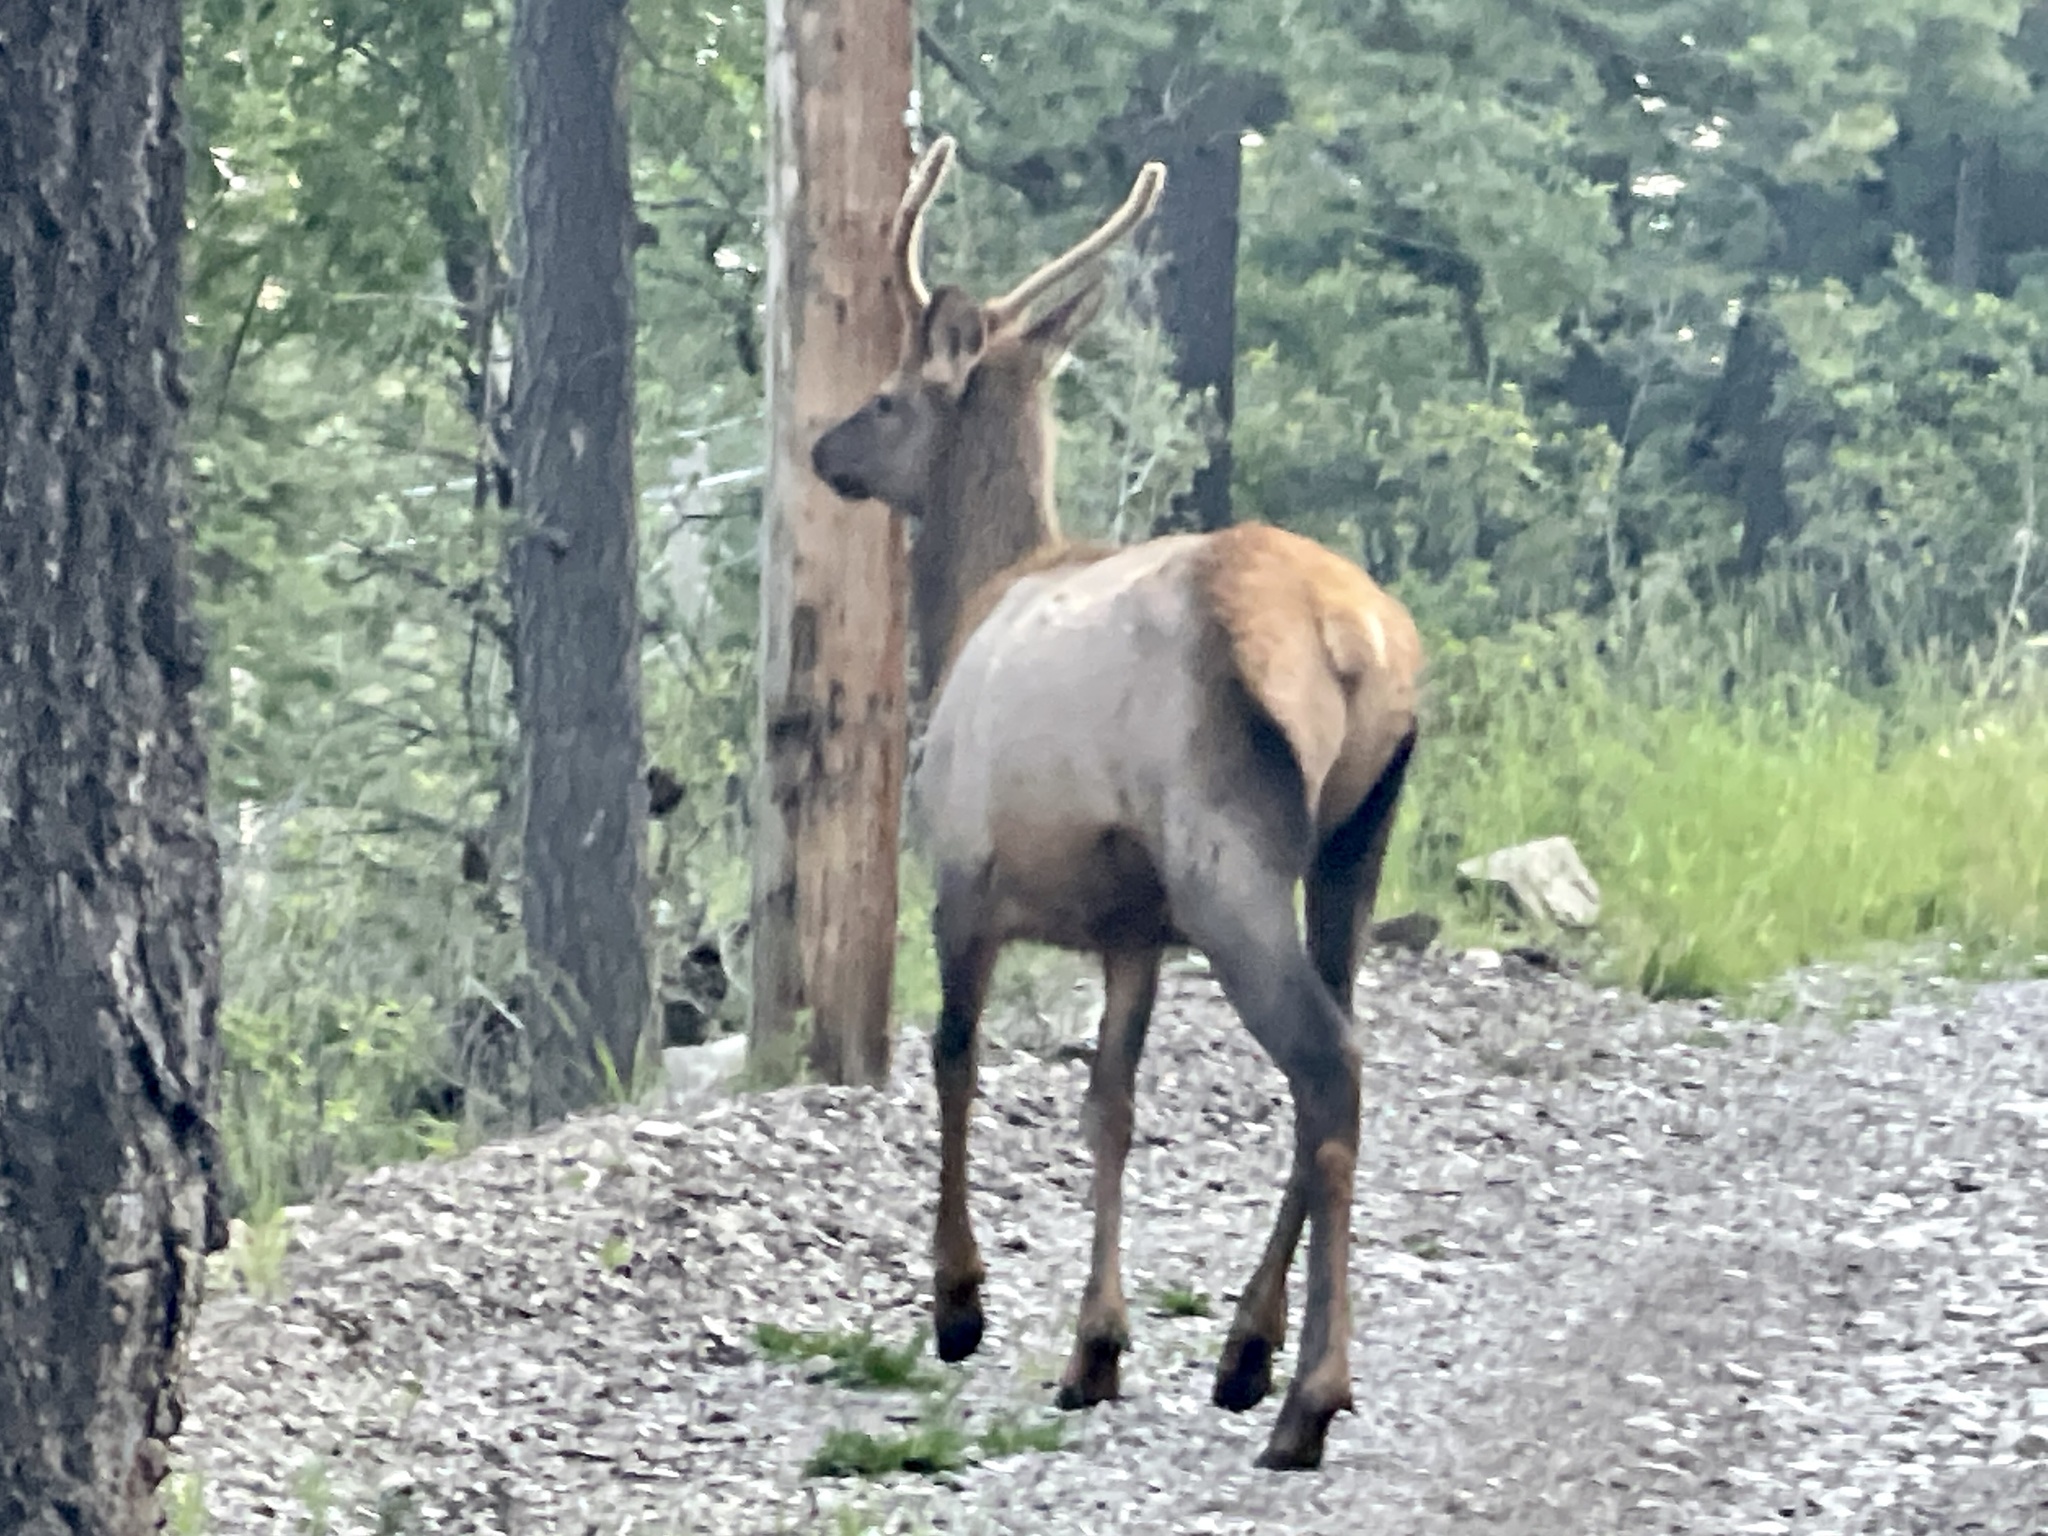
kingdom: Animalia
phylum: Chordata
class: Mammalia
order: Artiodactyla
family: Cervidae
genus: Cervus
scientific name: Cervus elaphus
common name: Red deer
